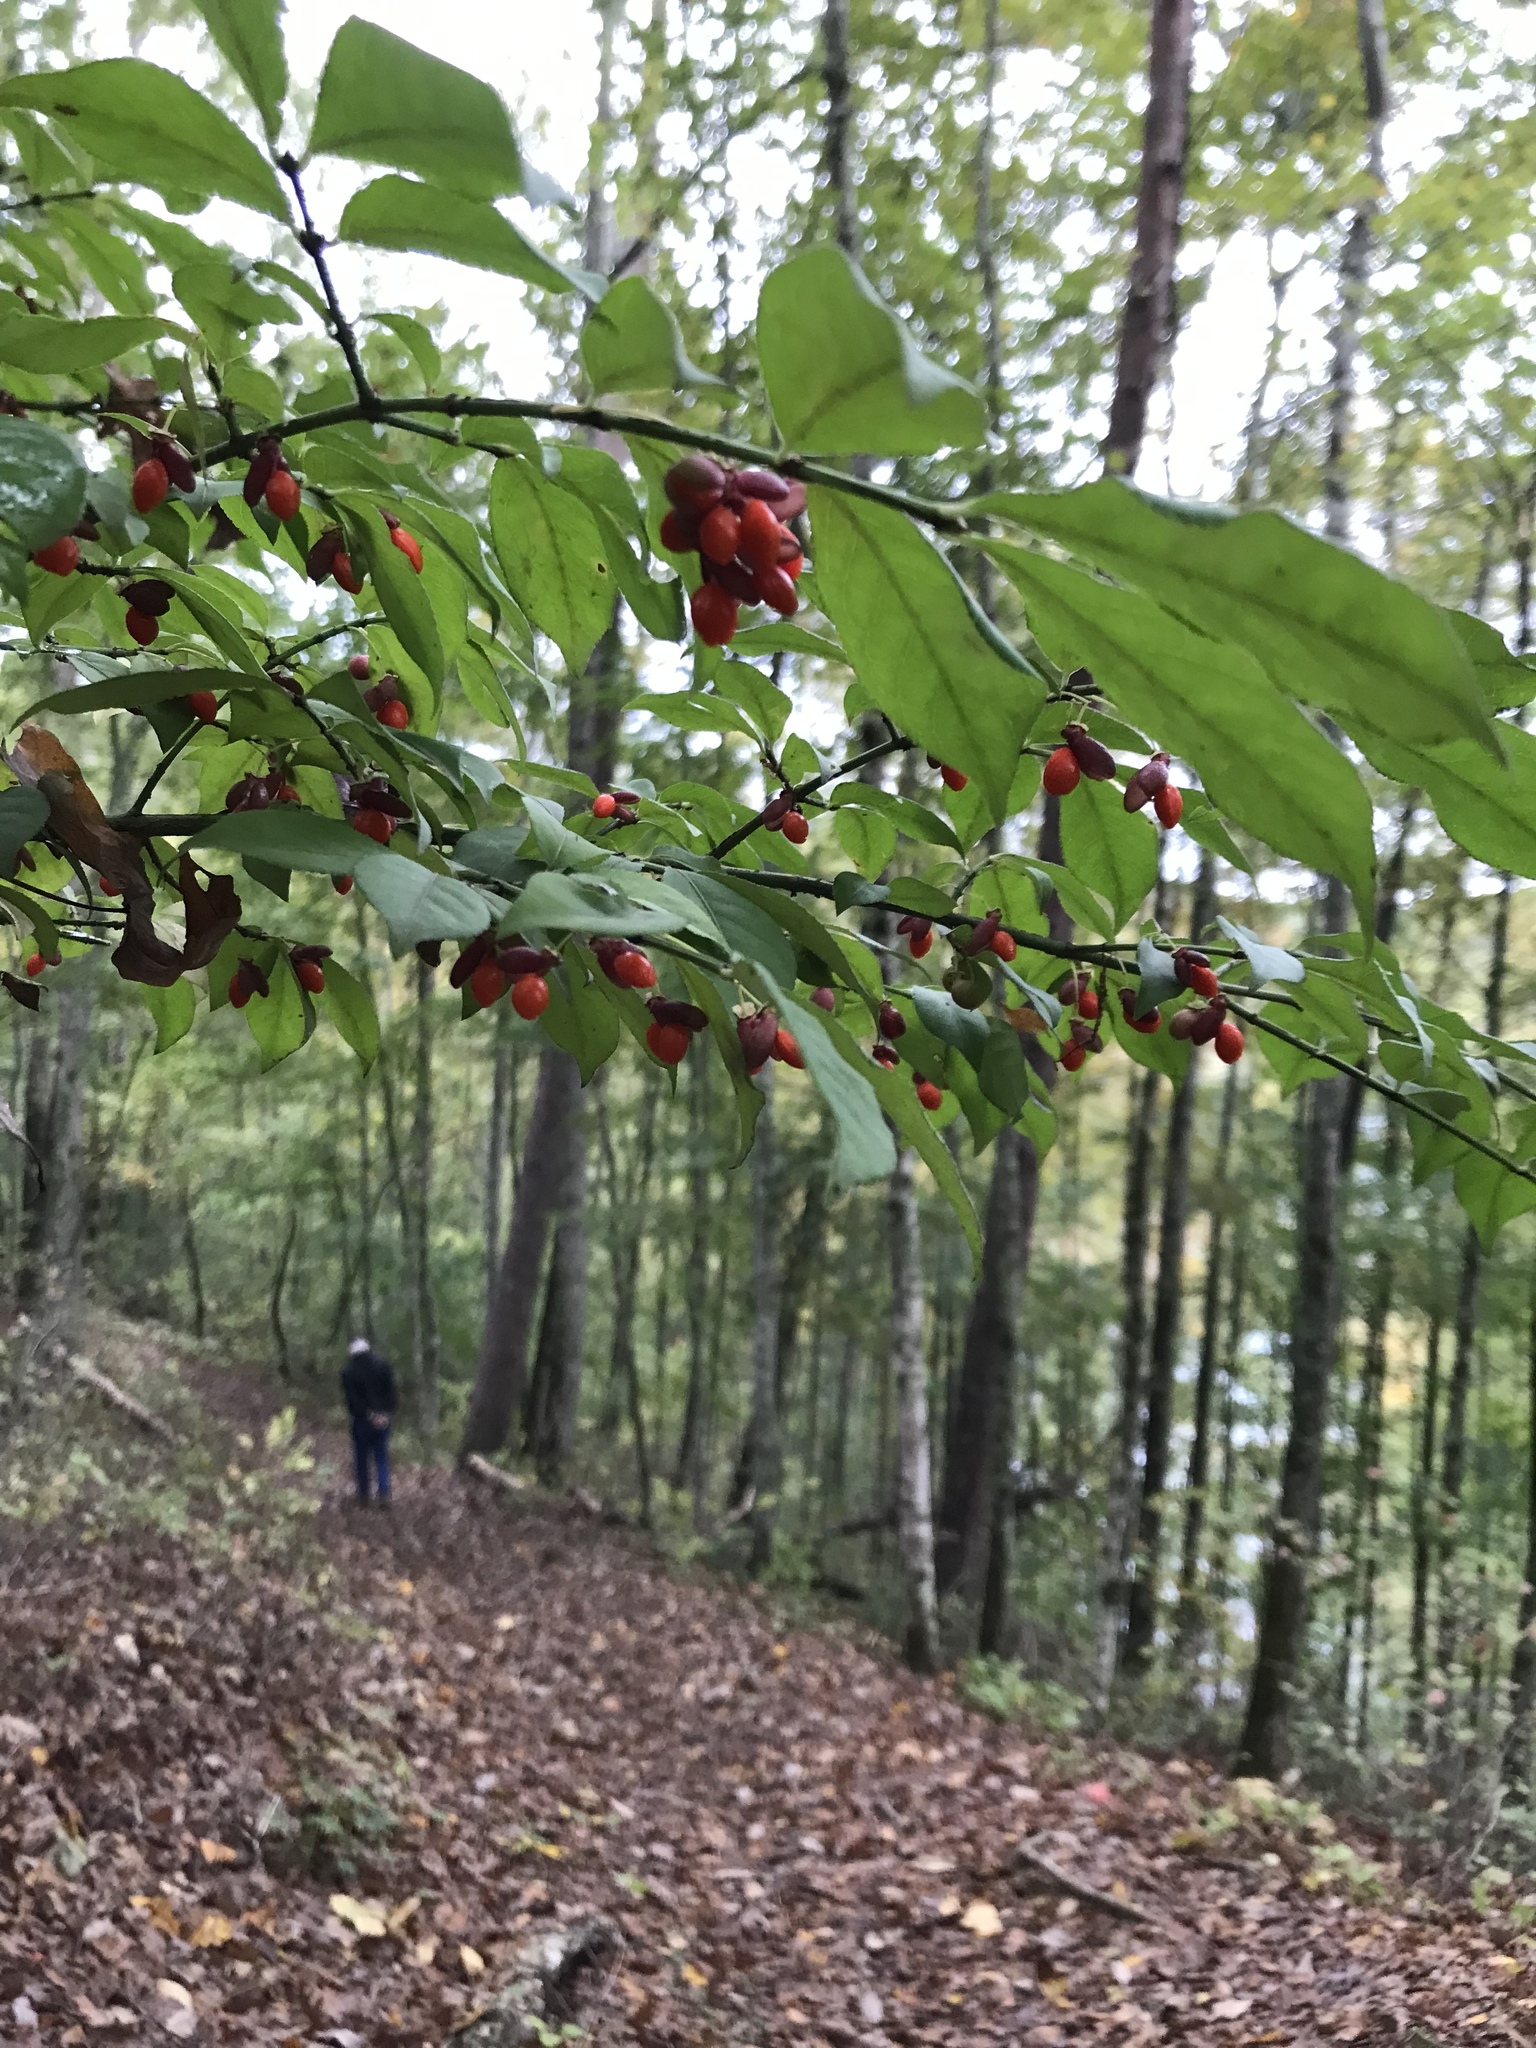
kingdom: Plantae
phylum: Tracheophyta
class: Magnoliopsida
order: Celastrales
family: Celastraceae
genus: Euonymus
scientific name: Euonymus alatus
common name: Winged euonymus
